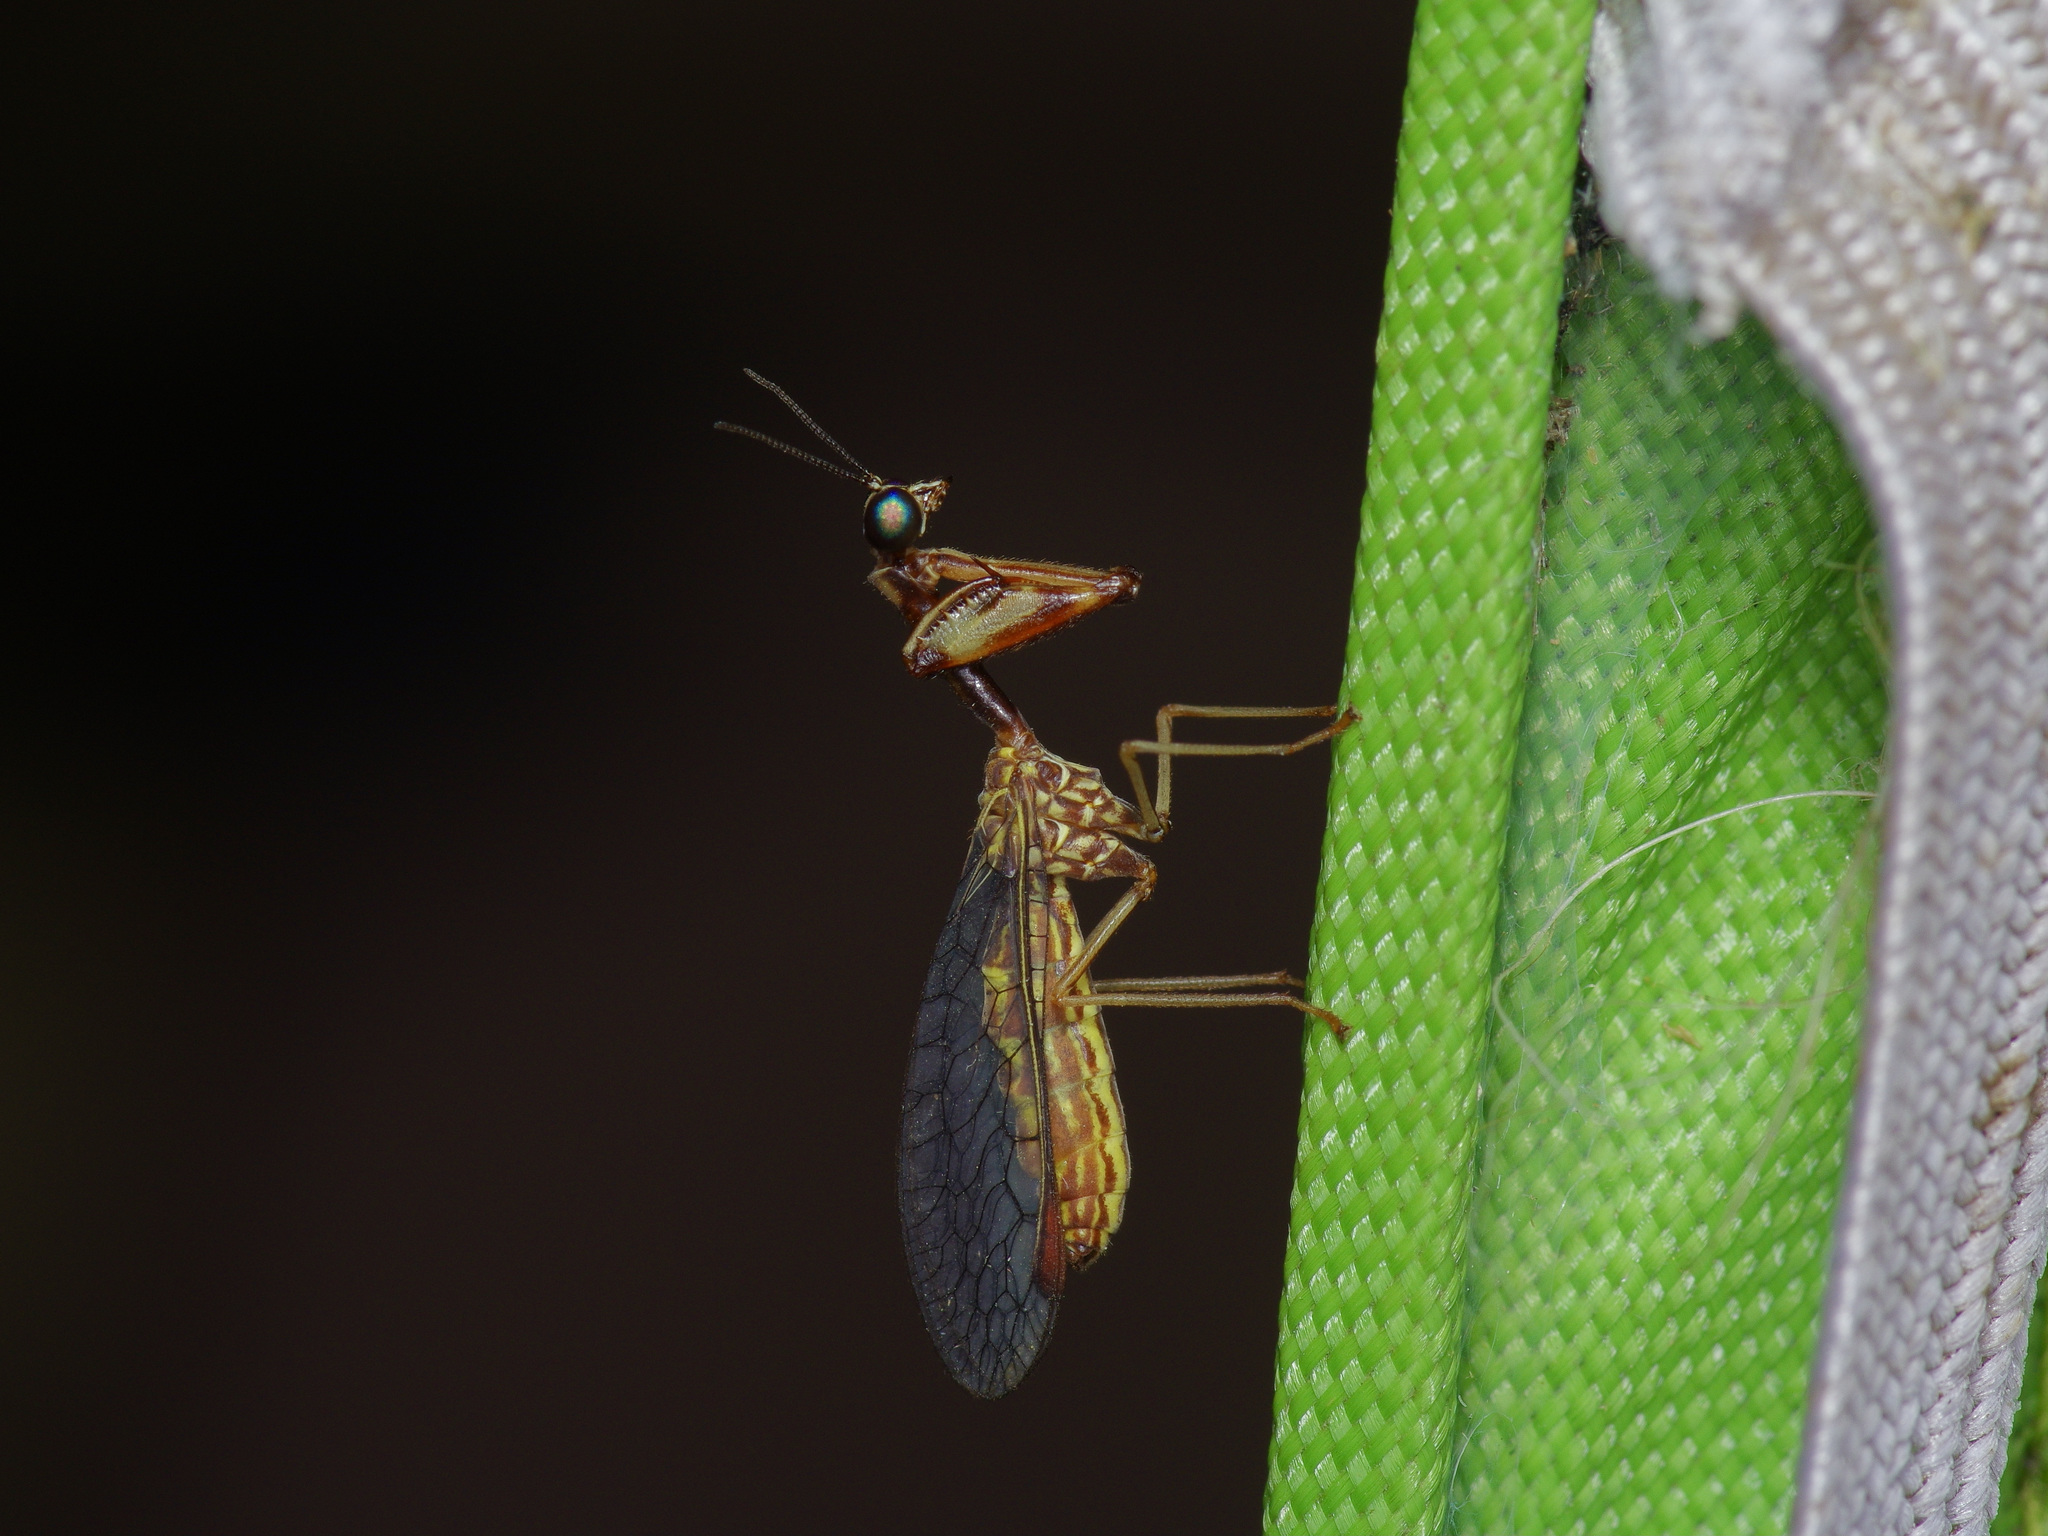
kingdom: Animalia
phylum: Arthropoda
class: Insecta
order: Neuroptera
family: Mantispidae
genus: Leptomantispa
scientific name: Leptomantispa pulchella
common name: Stevens's mantidfly
